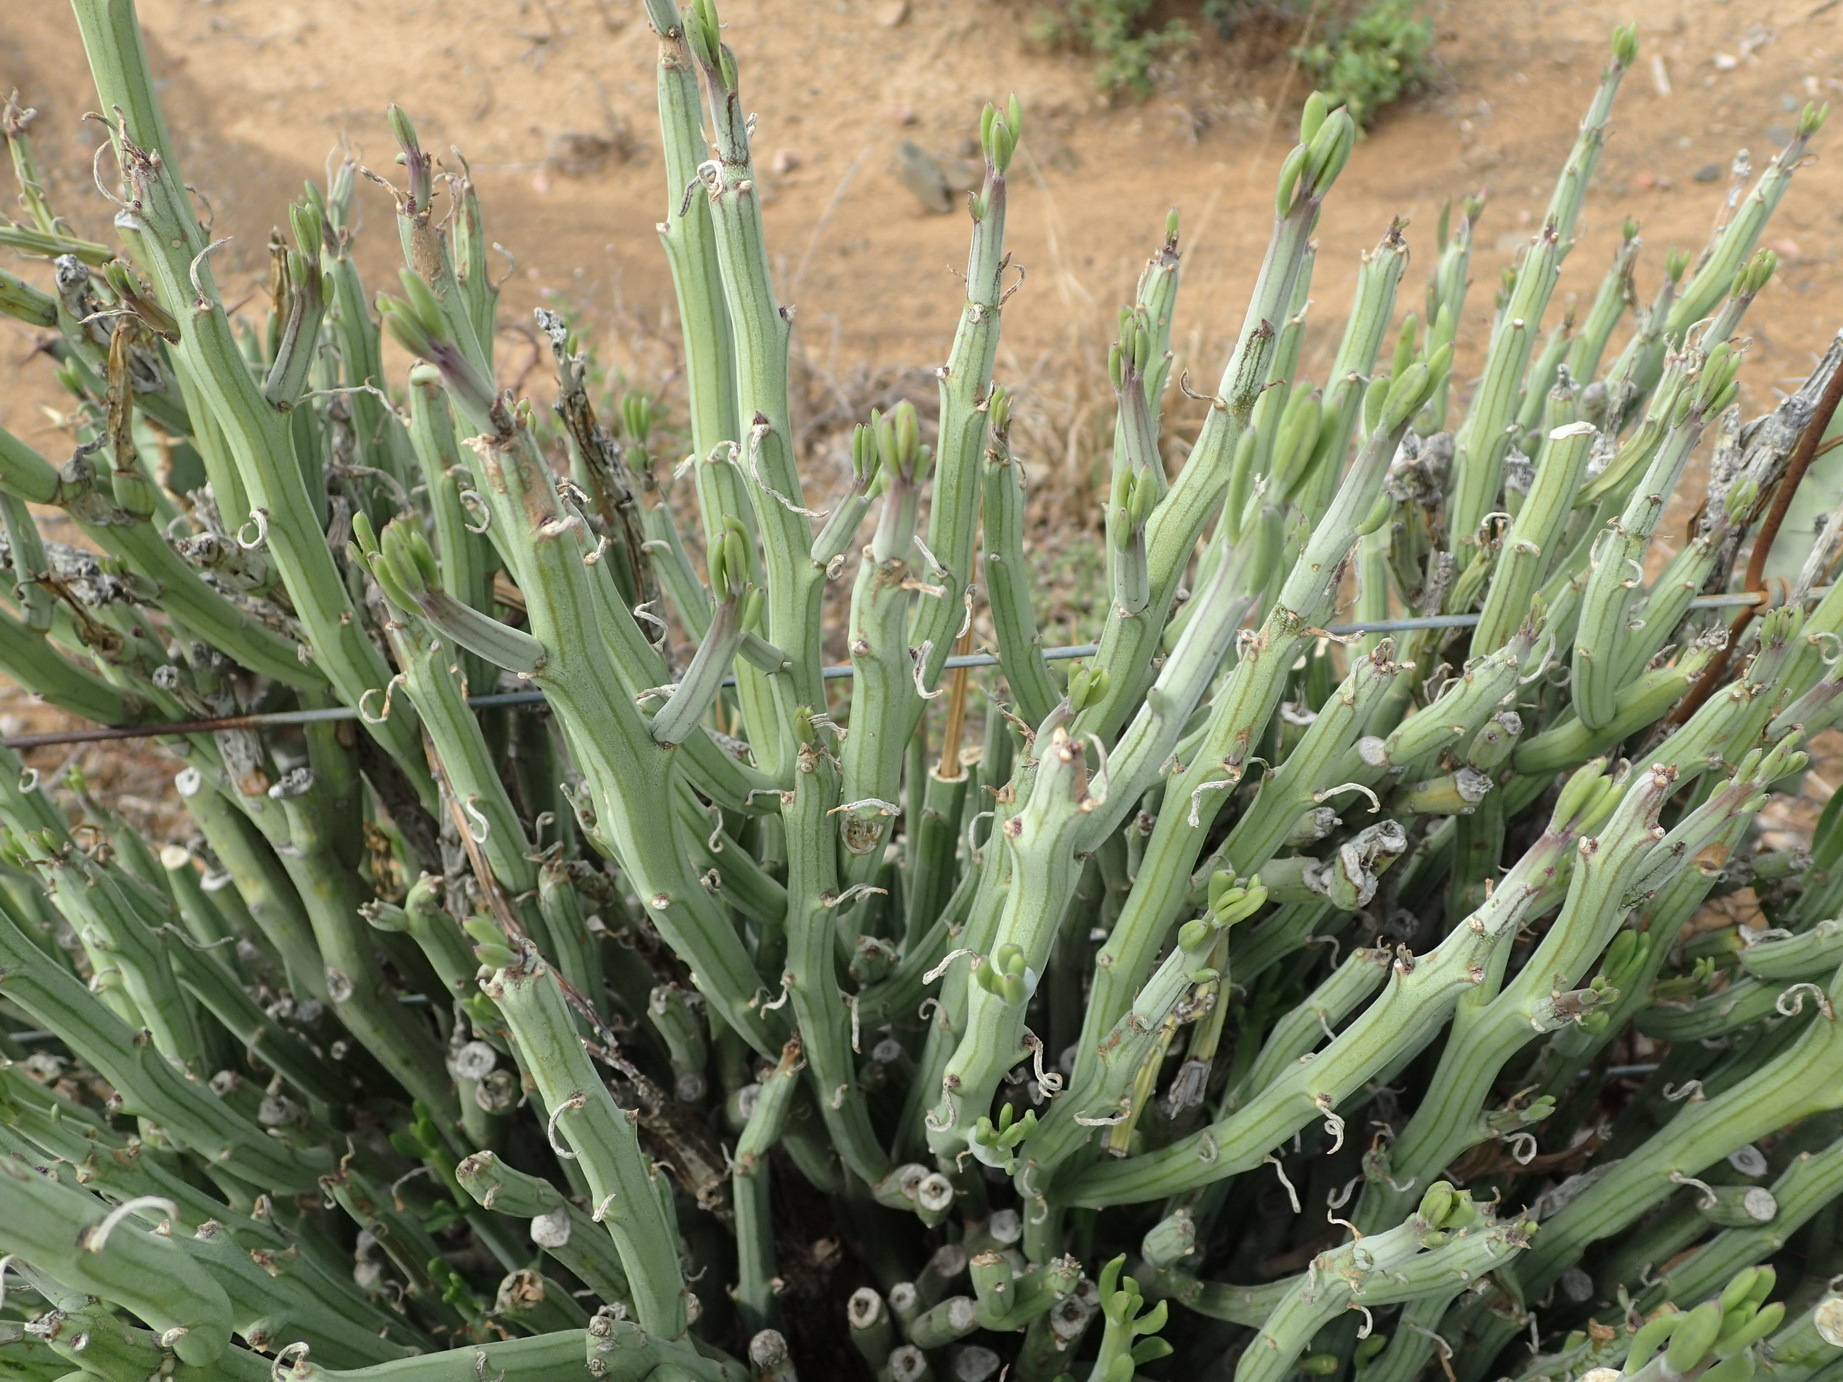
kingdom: Plantae
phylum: Tracheophyta
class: Magnoliopsida
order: Asterales
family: Asteraceae
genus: Curio
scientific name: Curio avasimontanus
